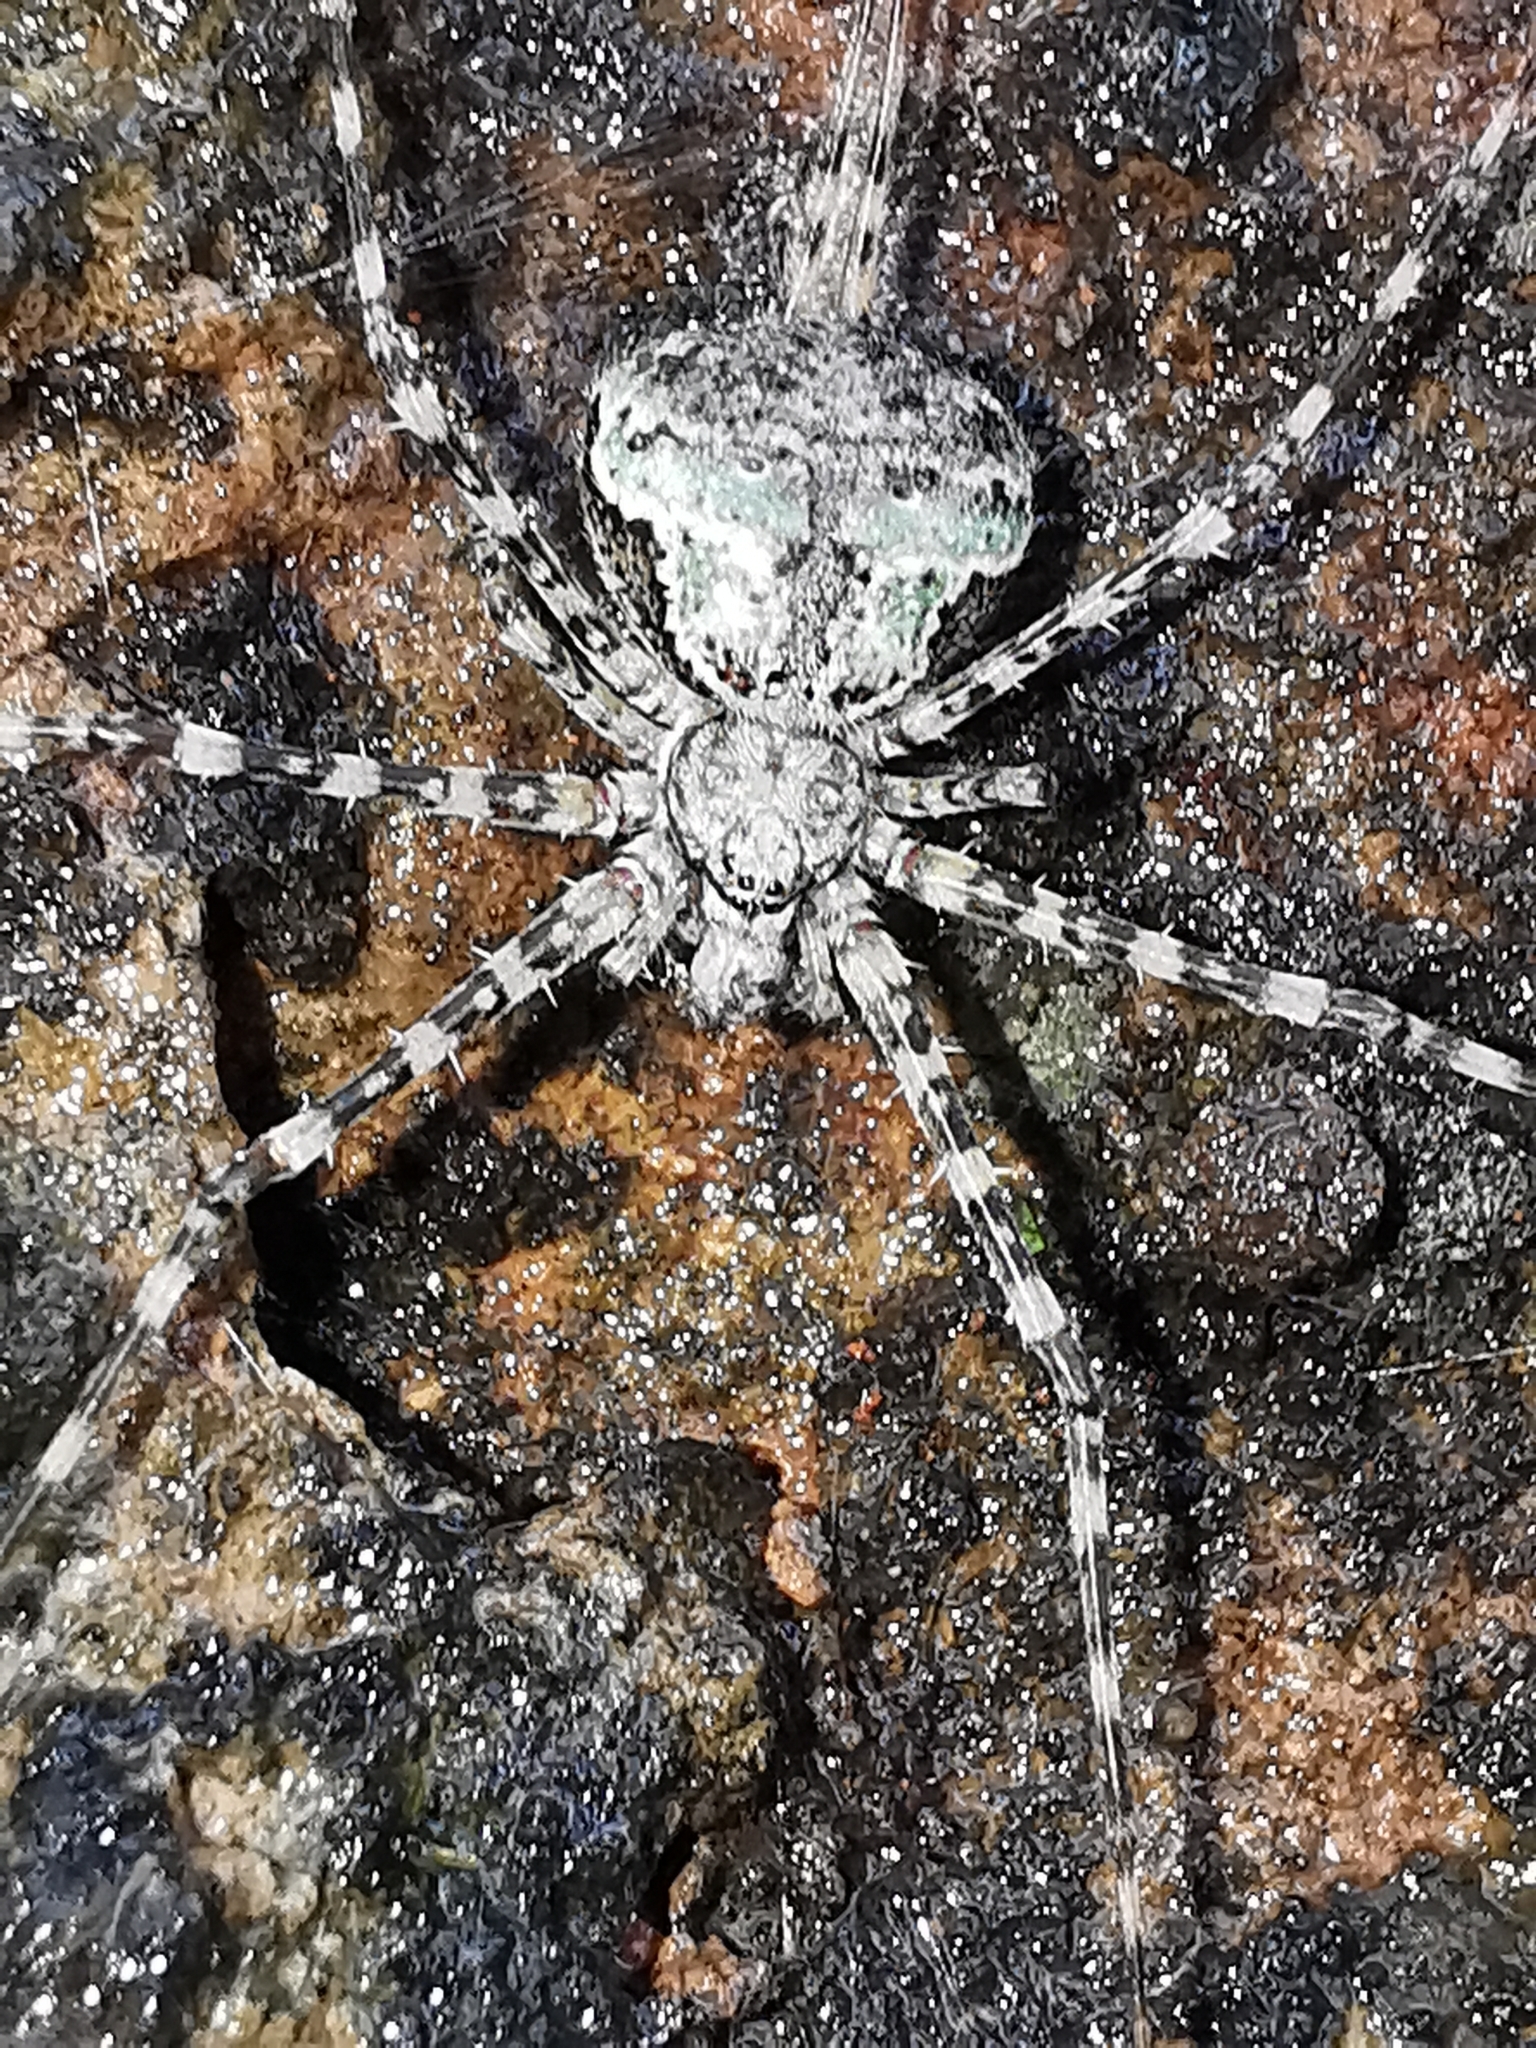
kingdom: Animalia
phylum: Arthropoda
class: Arachnida
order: Araneae
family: Hersiliidae
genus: Neotama
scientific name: Neotama mexicana
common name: Tree trunk spiders
